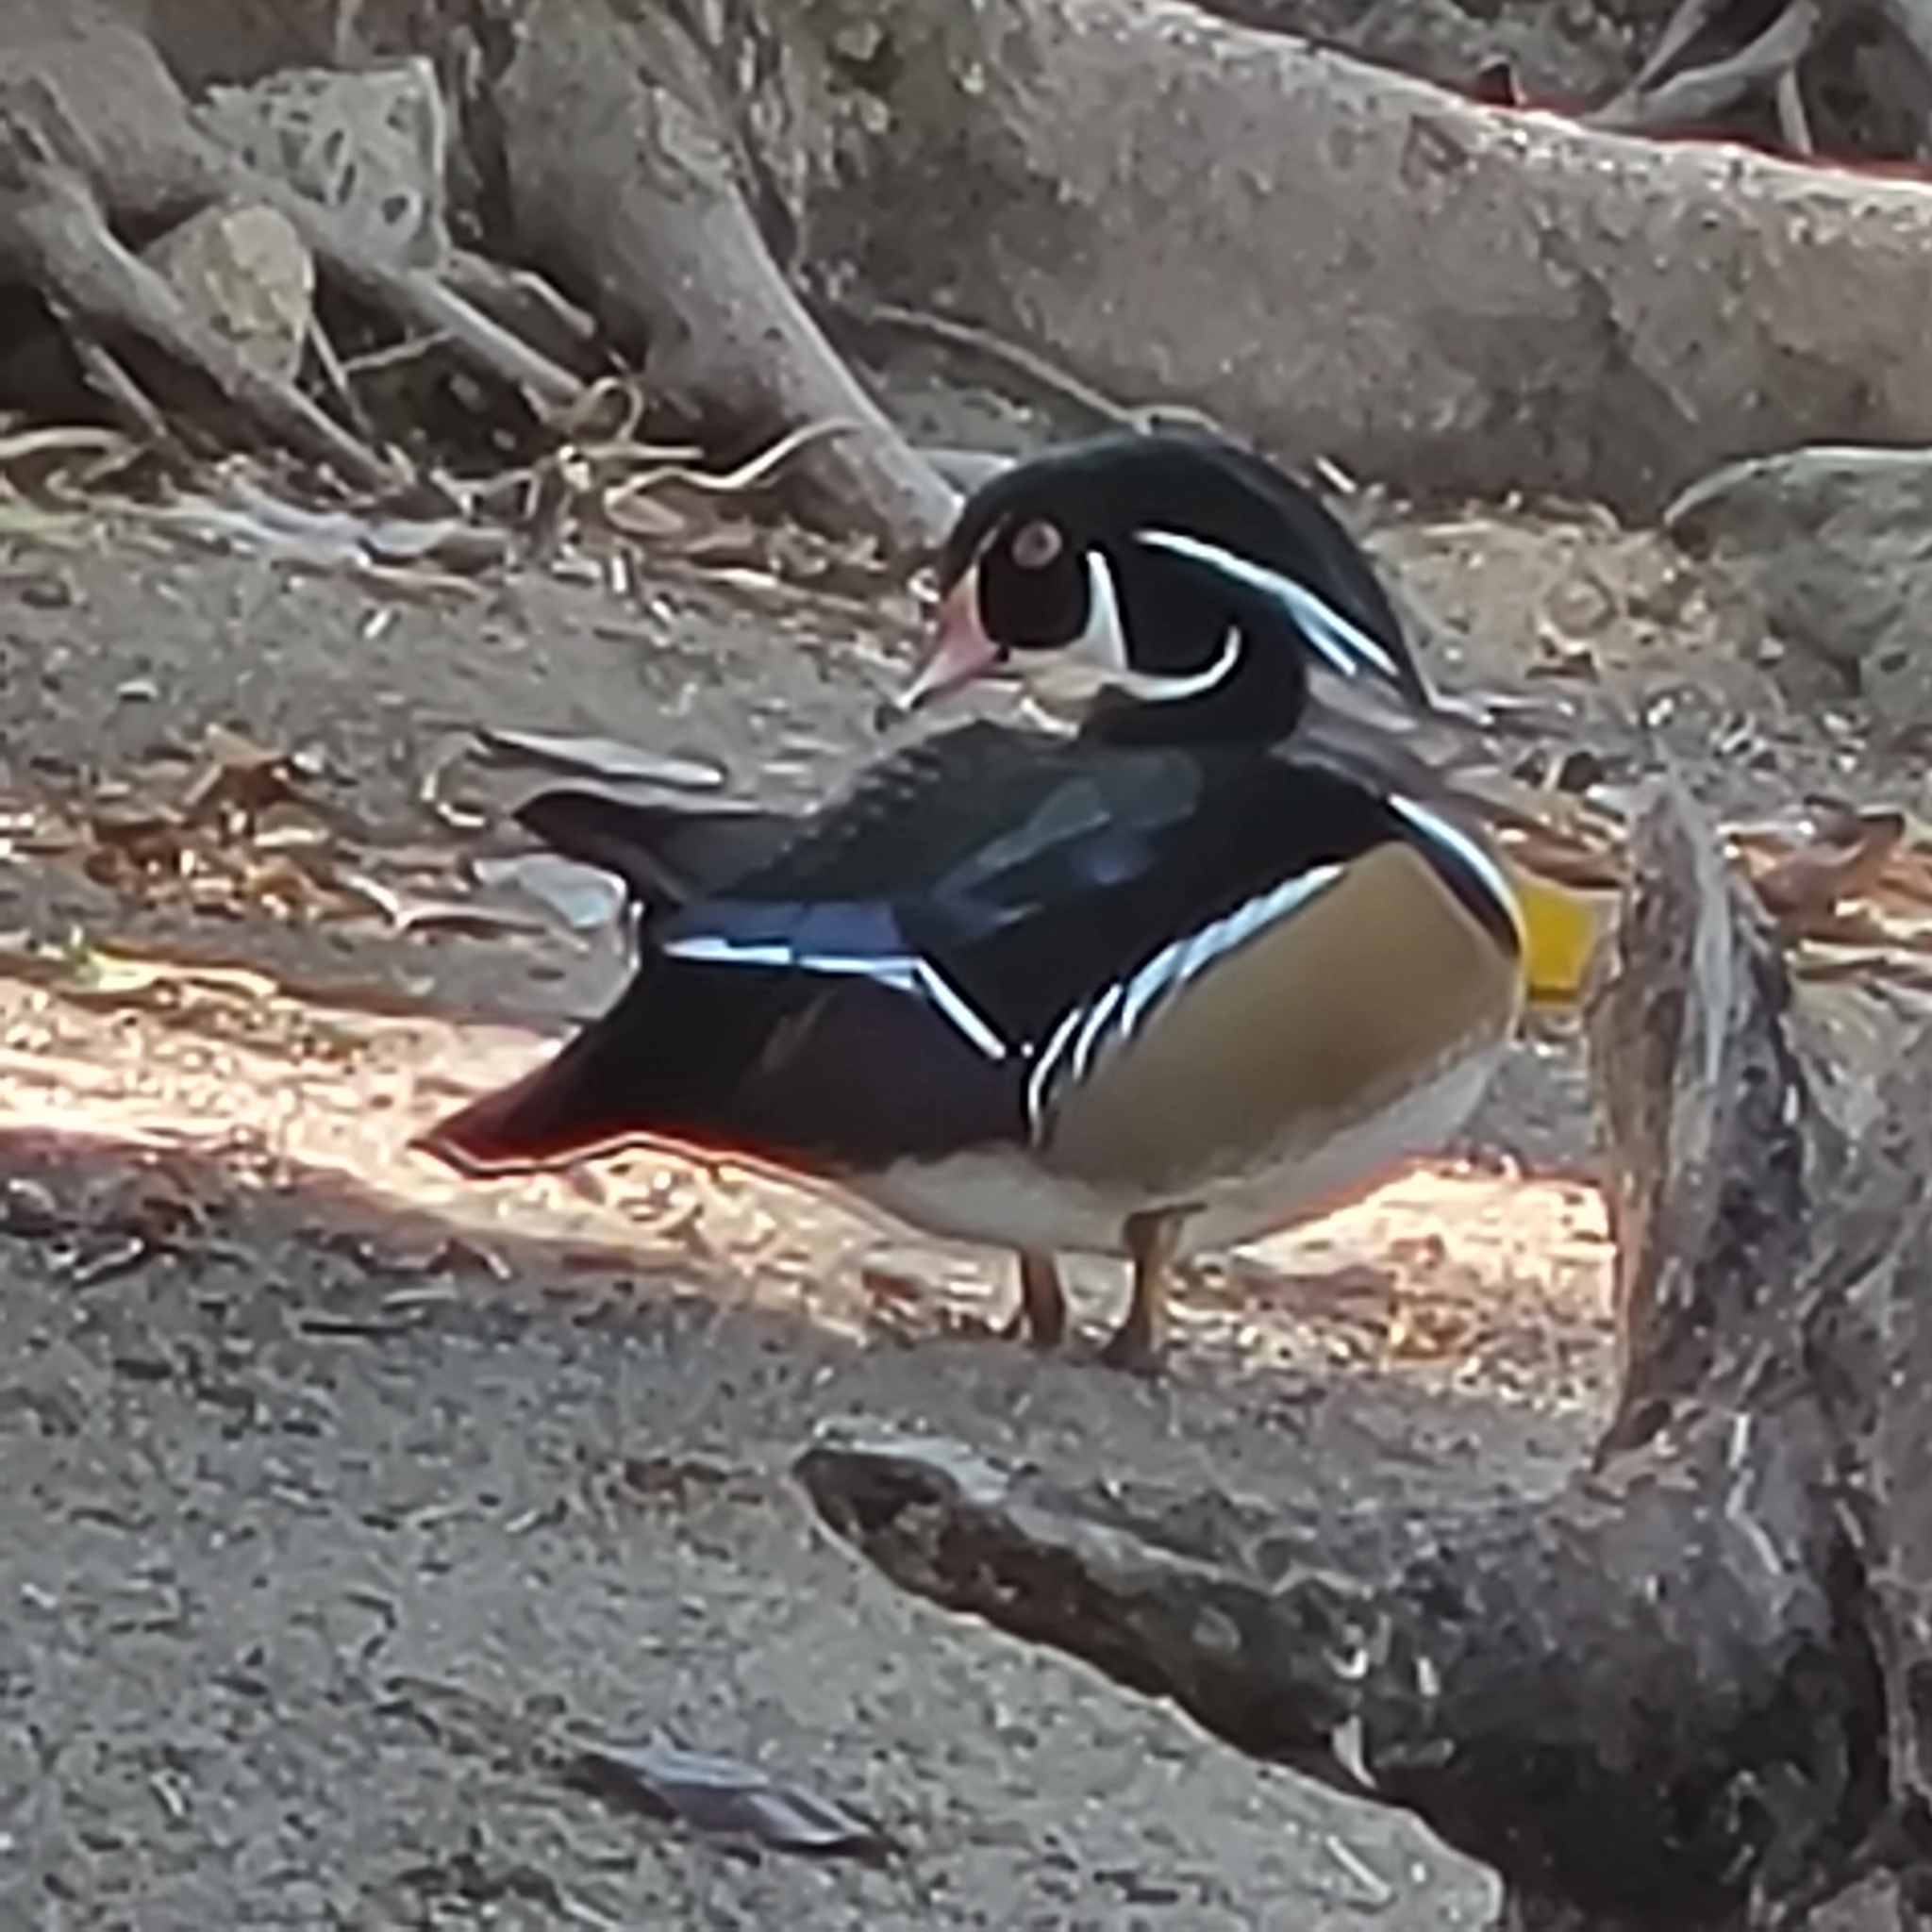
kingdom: Animalia
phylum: Chordata
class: Aves
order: Anseriformes
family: Anatidae
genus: Aix
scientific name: Aix sponsa
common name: Wood duck
